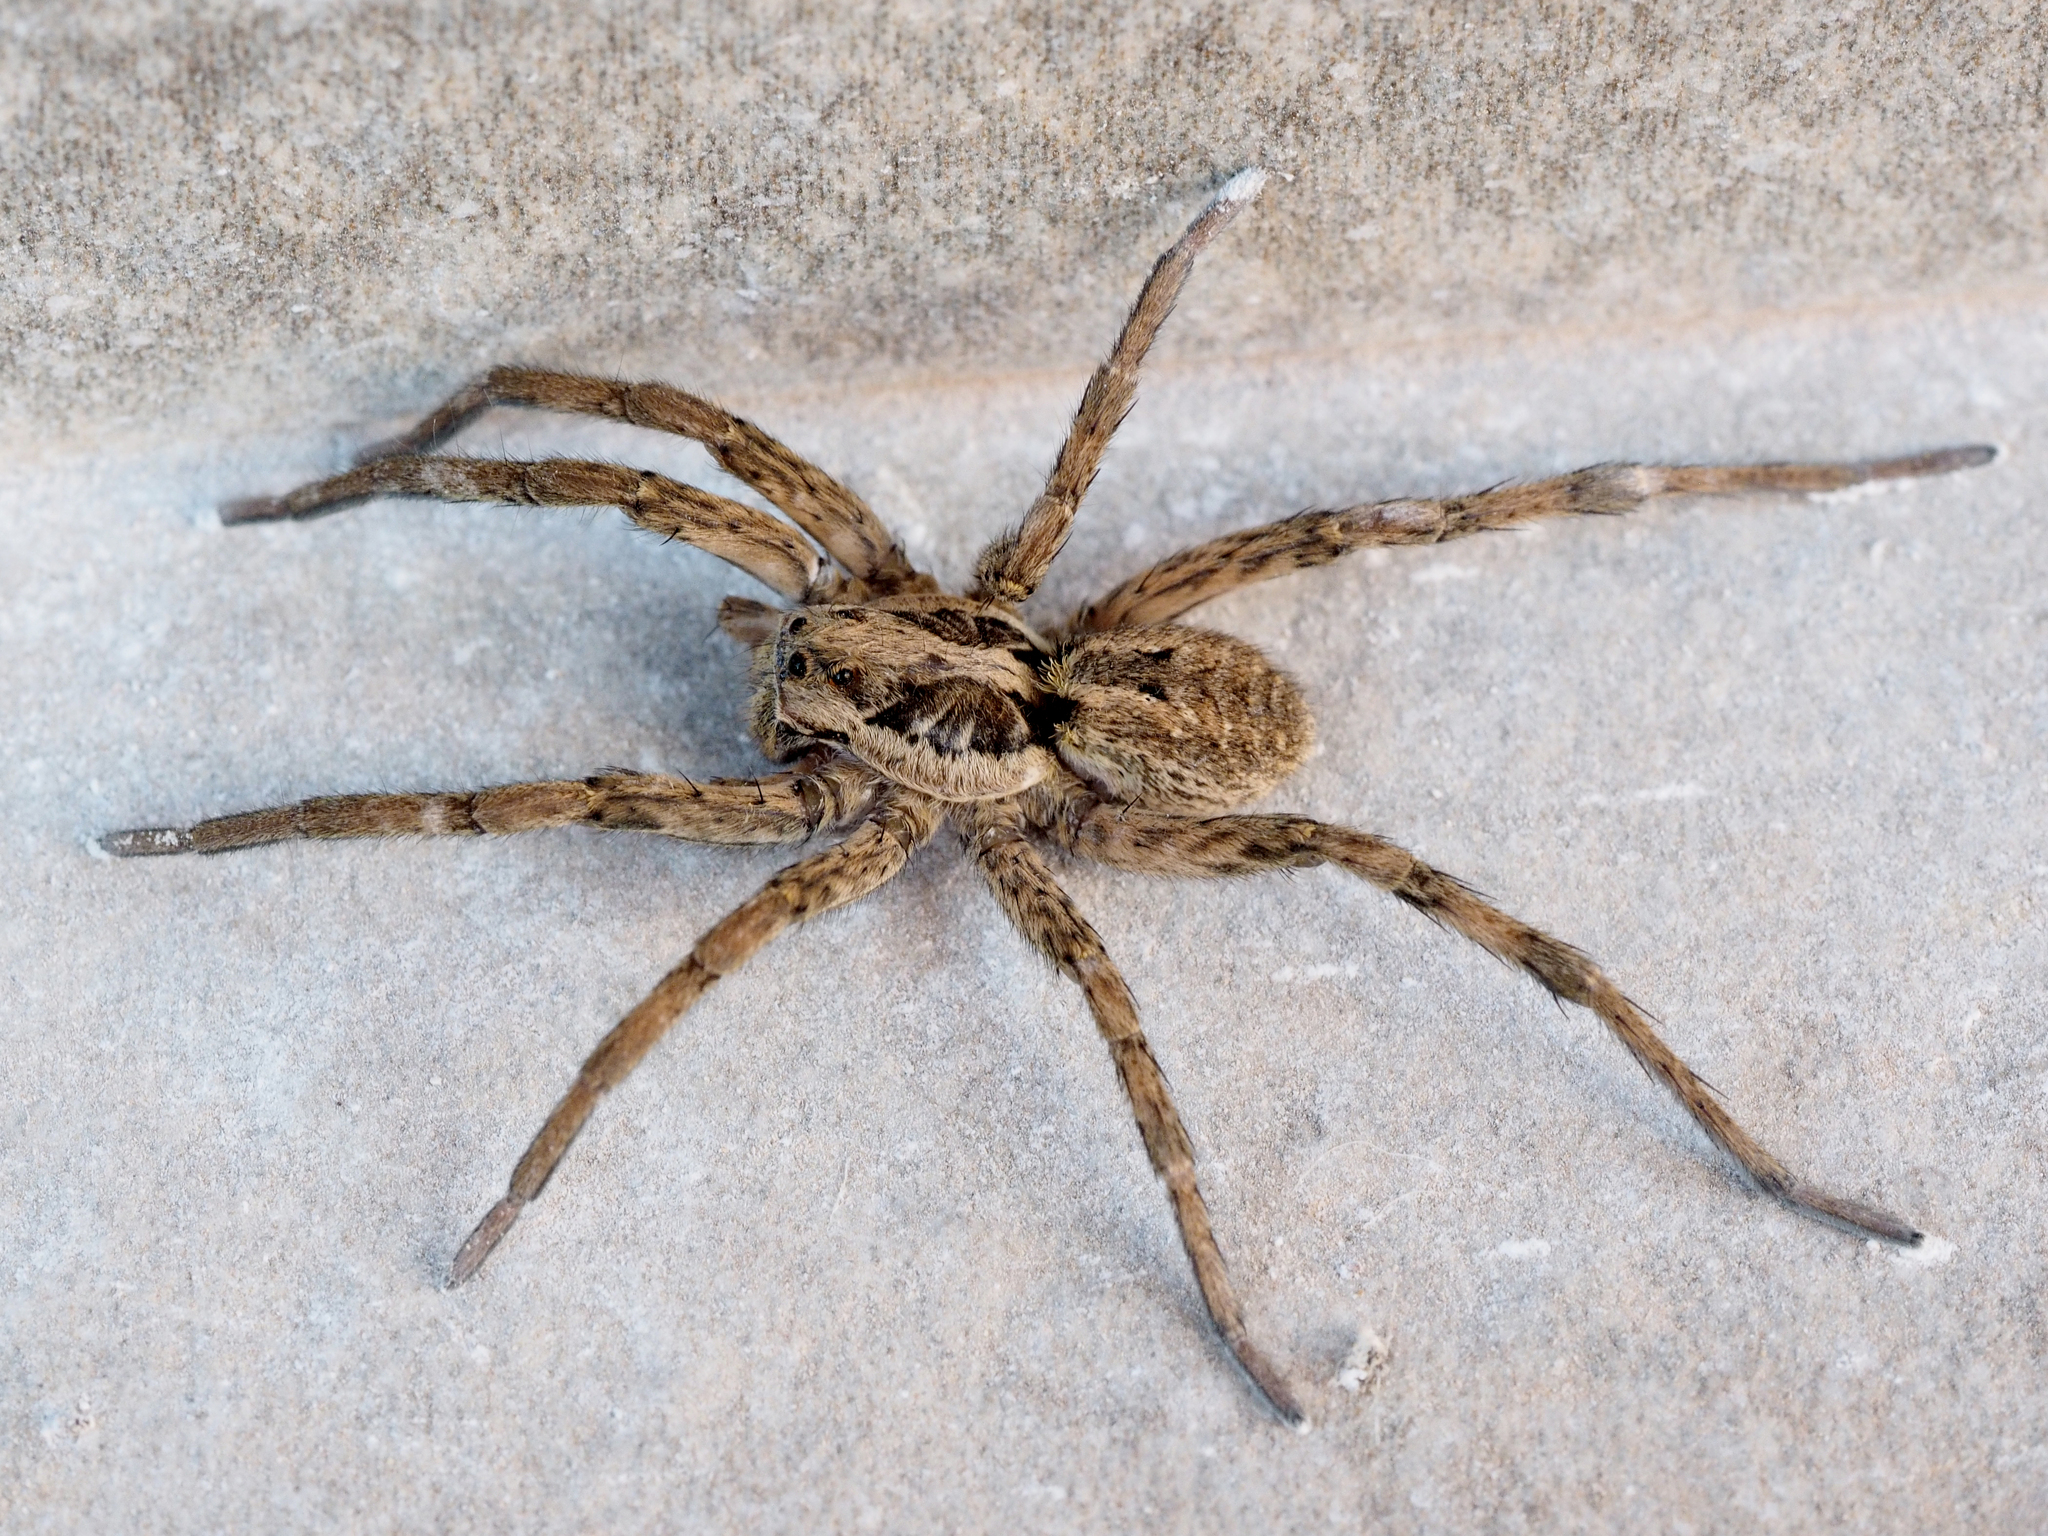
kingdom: Animalia
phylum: Arthropoda
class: Arachnida
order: Araneae
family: Lycosidae
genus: Hogna
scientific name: Hogna radiata
